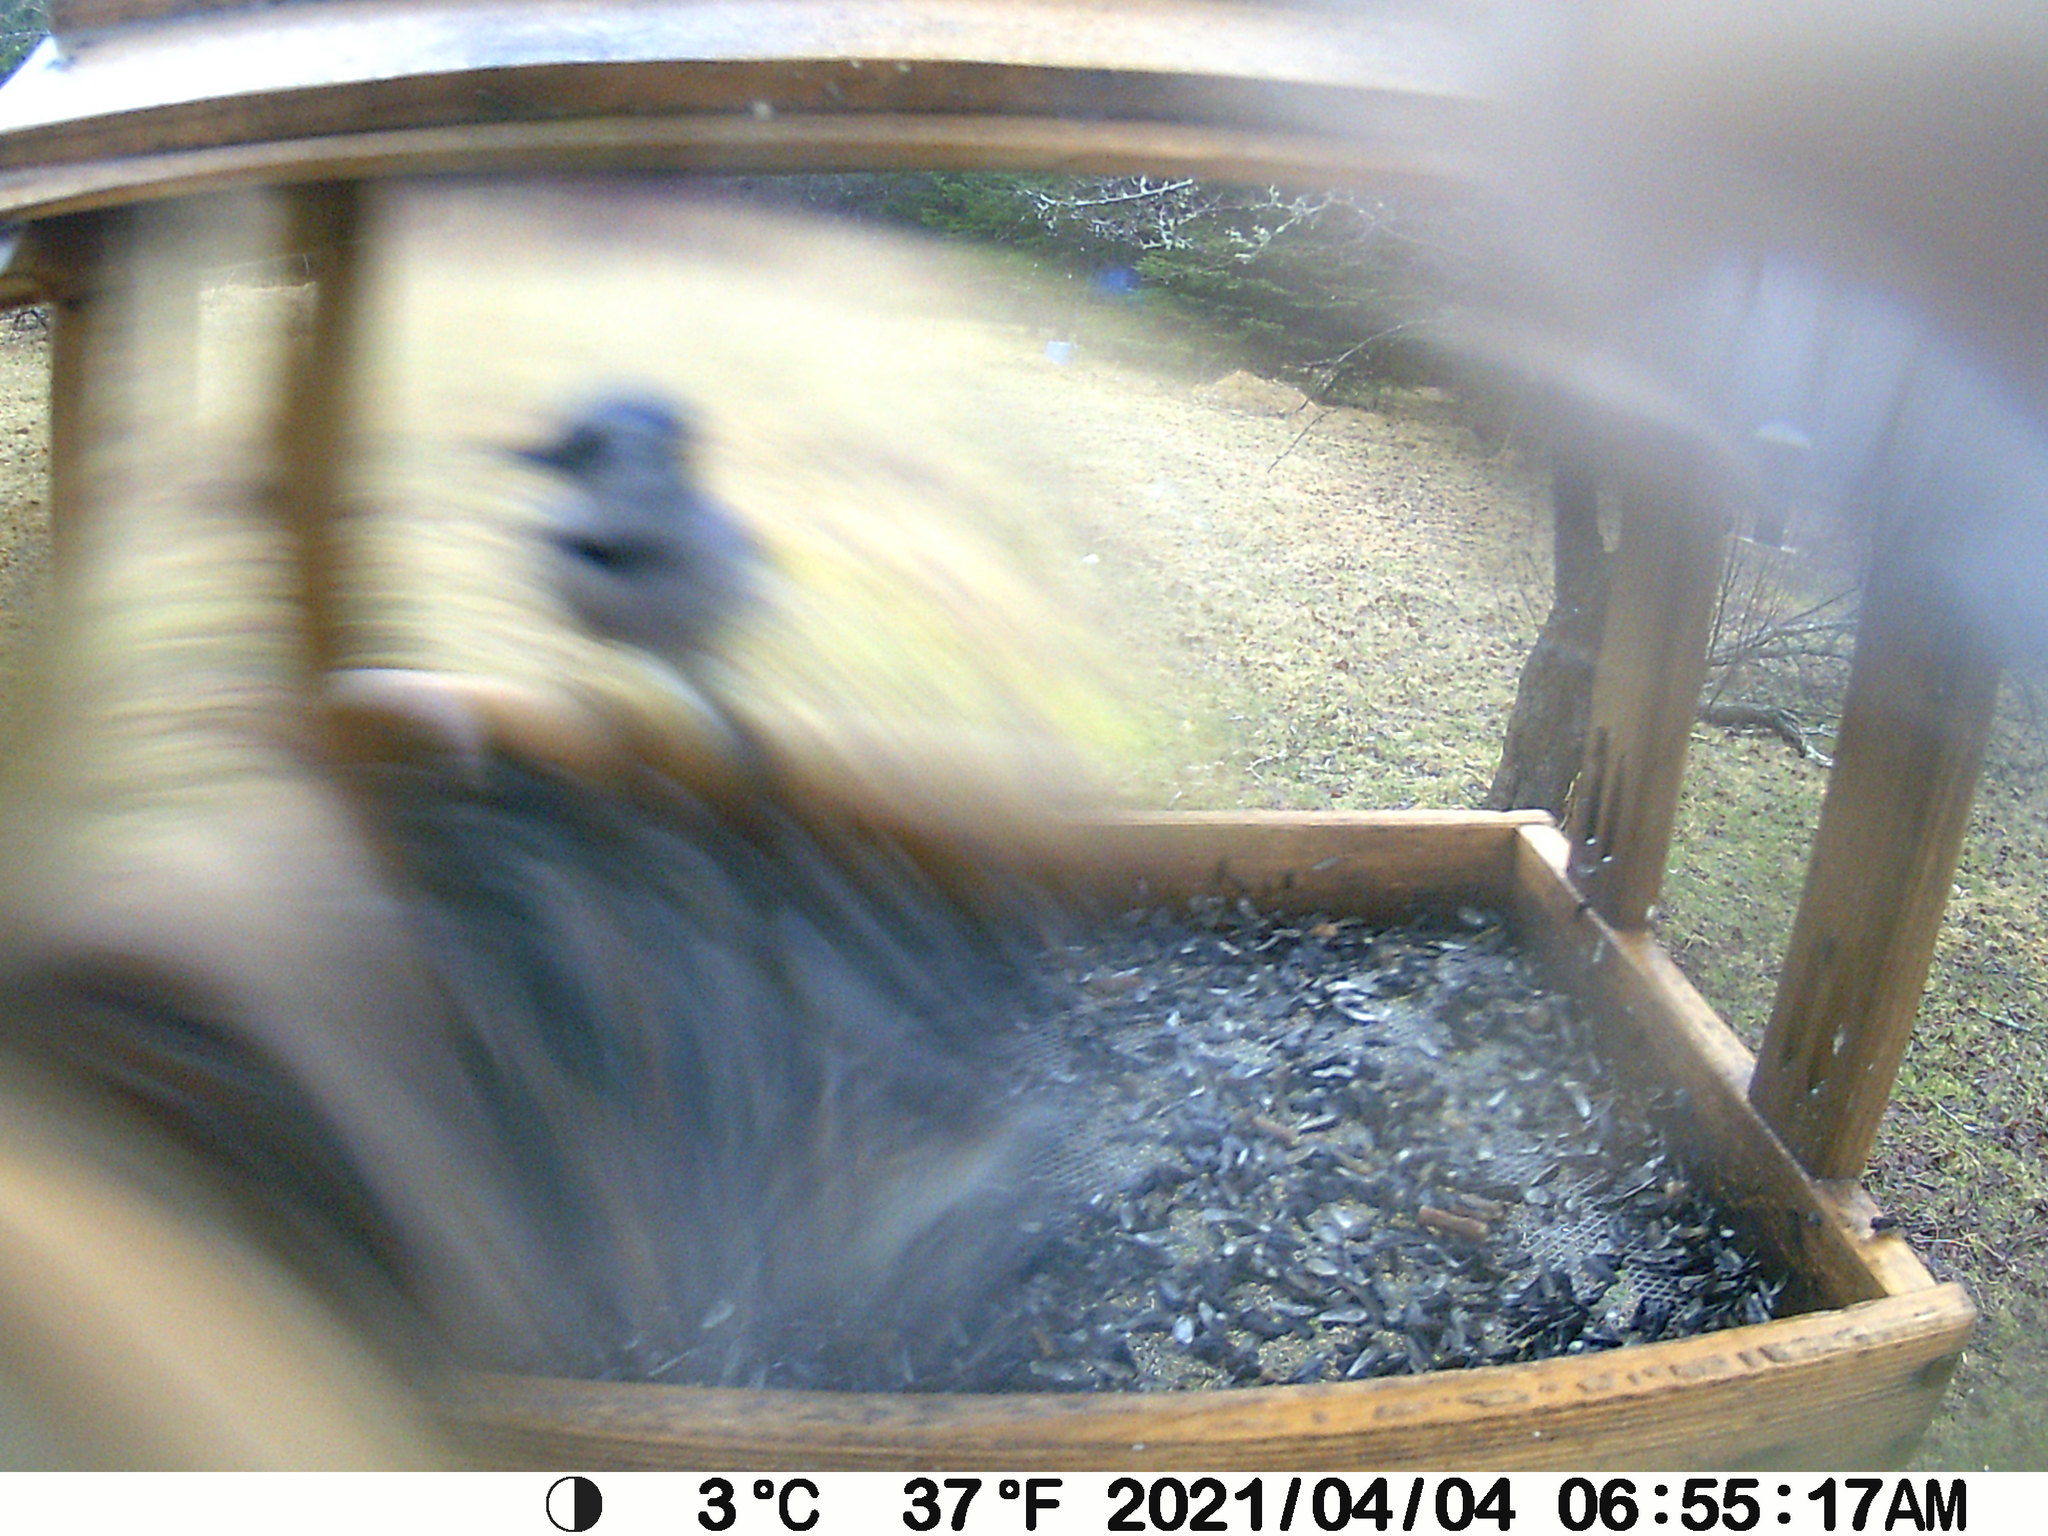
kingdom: Animalia
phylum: Chordata
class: Aves
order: Passeriformes
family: Corvidae
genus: Cyanocitta
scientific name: Cyanocitta cristata
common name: Blue jay
